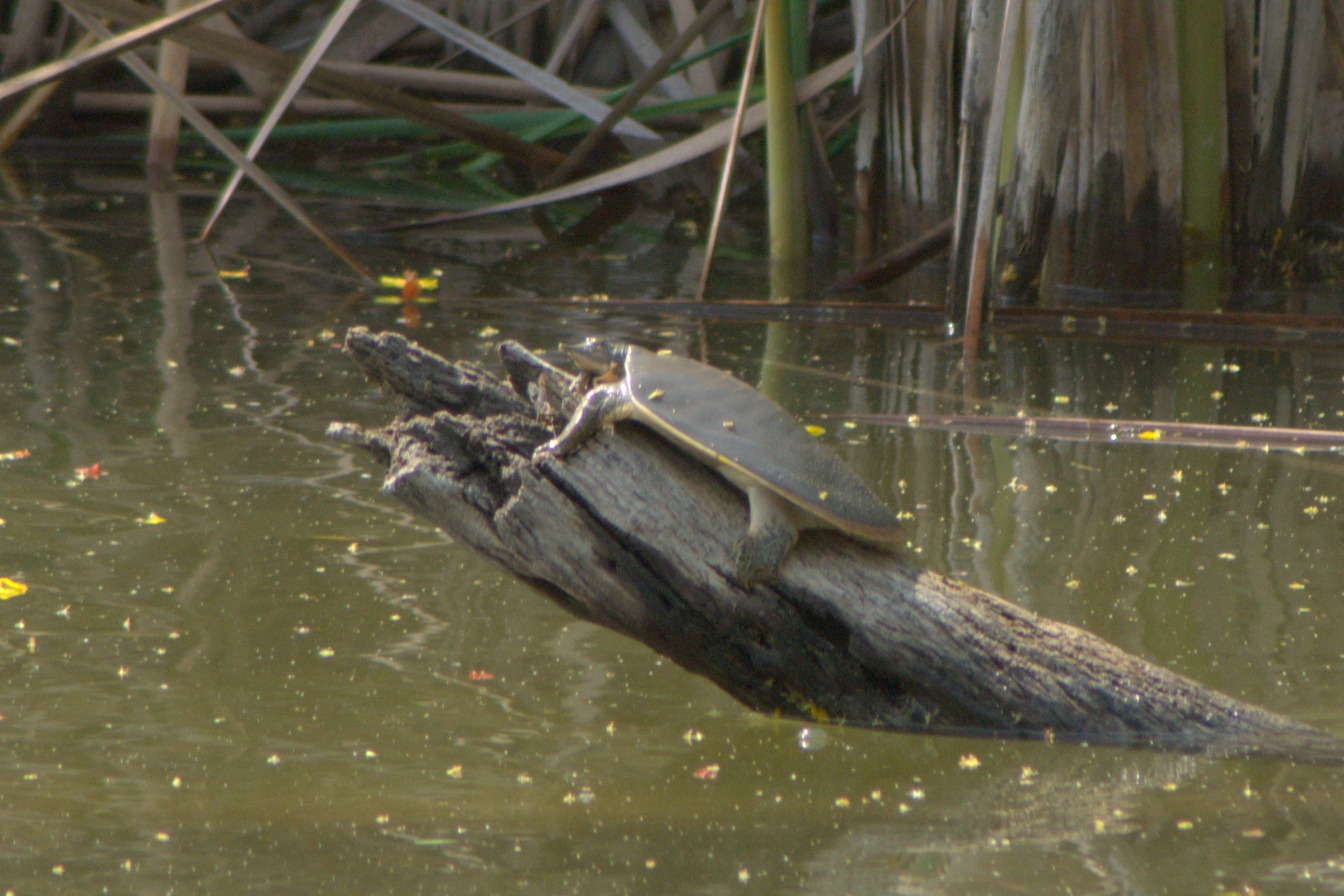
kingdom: Animalia
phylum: Chordata
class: Testudines
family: Trionychidae
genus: Apalone
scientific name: Apalone spinifera
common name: Spiny softshell turtle
